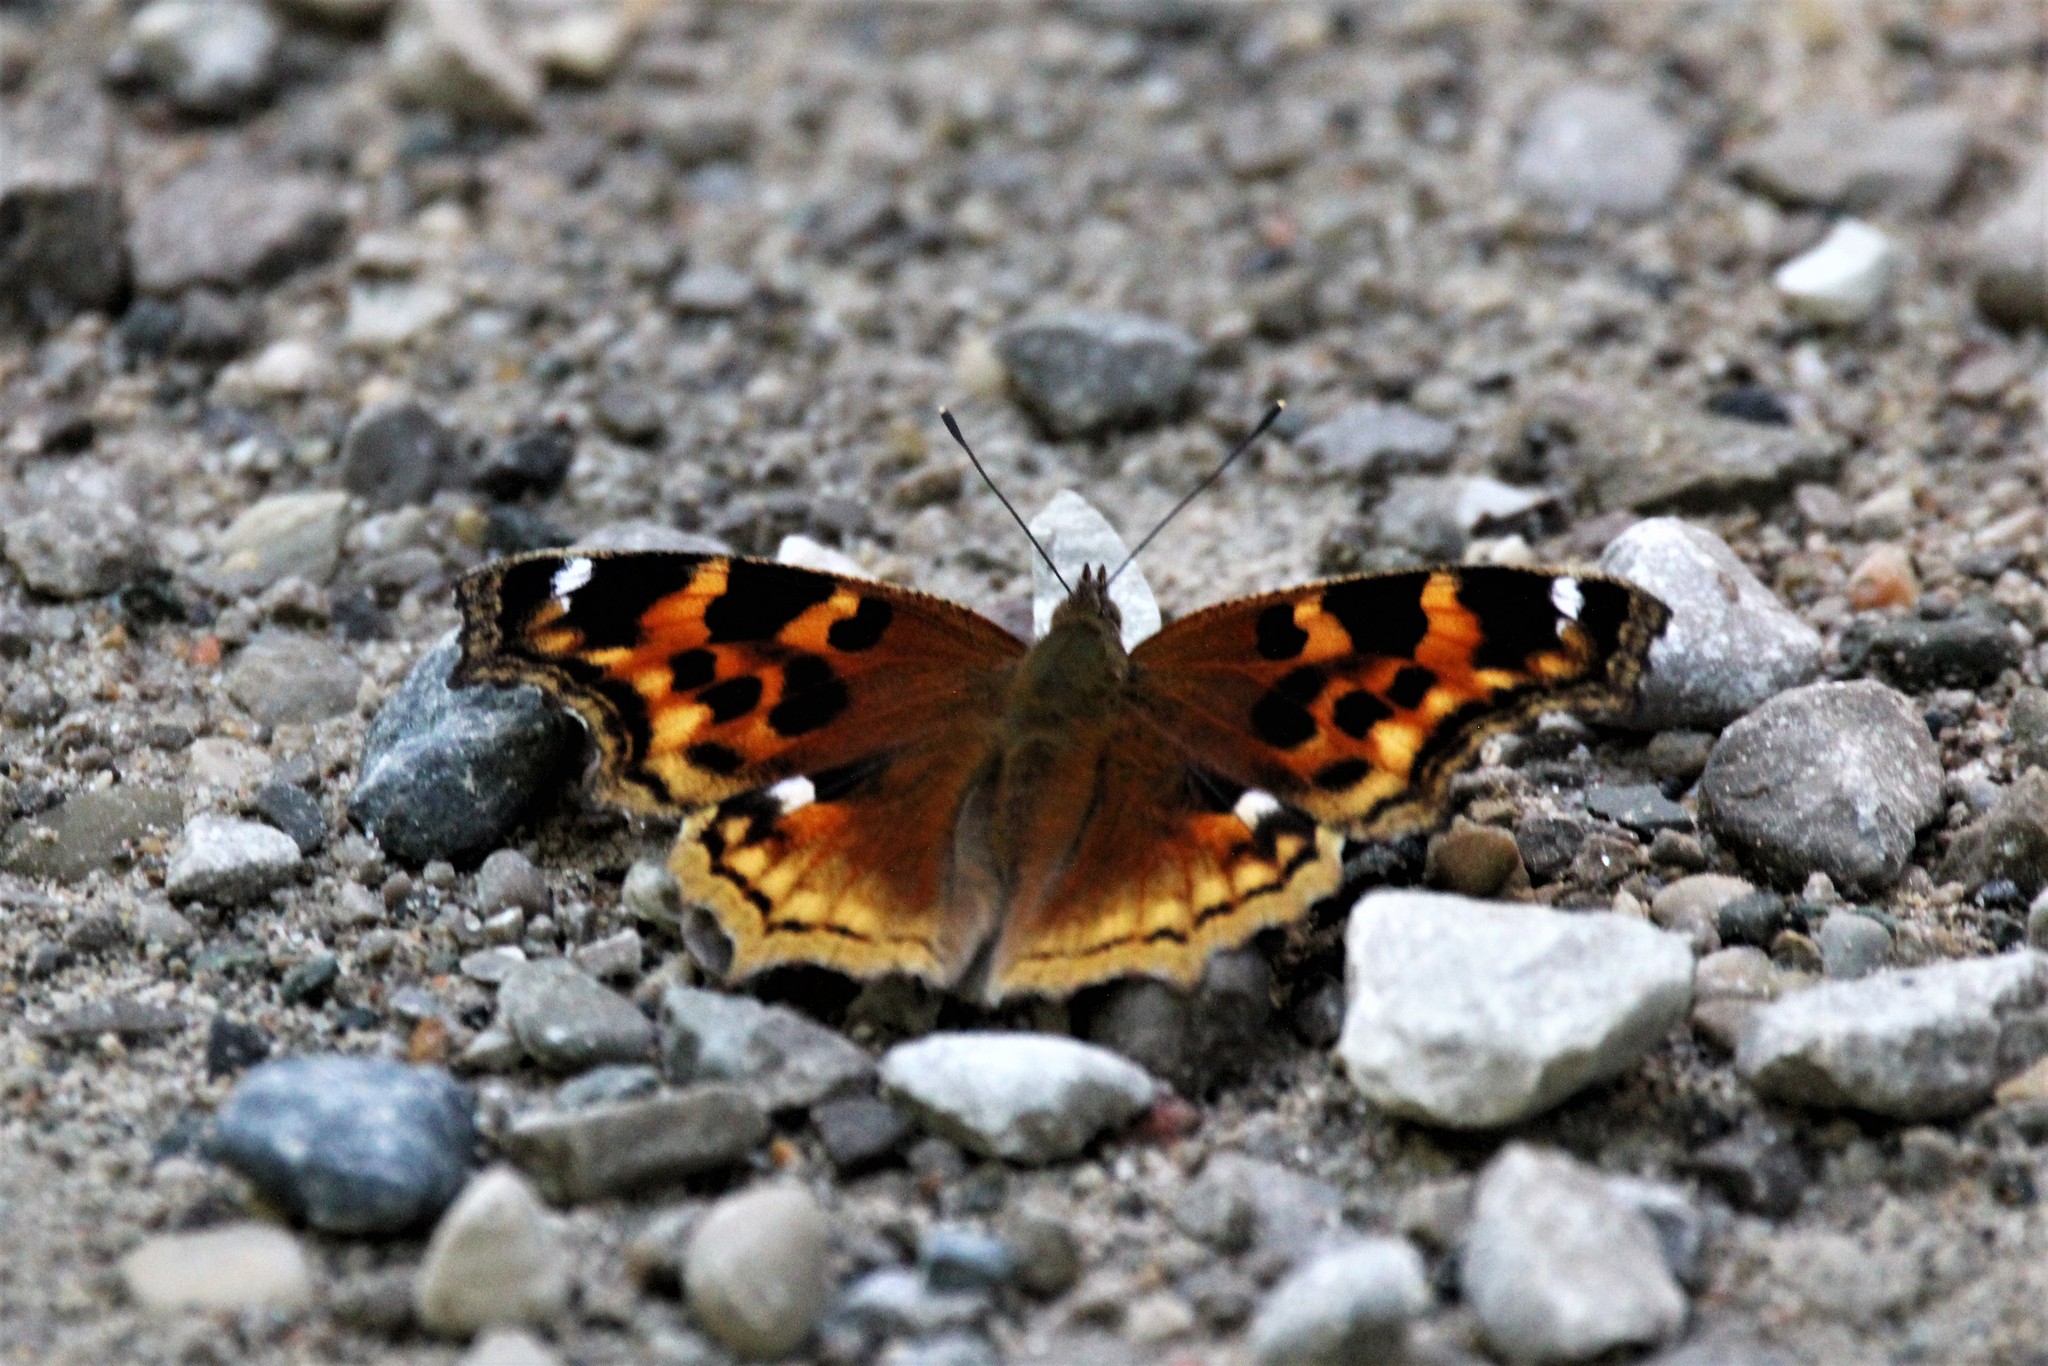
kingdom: Animalia
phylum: Arthropoda
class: Insecta
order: Lepidoptera
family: Nymphalidae
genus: Polygonia
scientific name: Polygonia vaualbum
